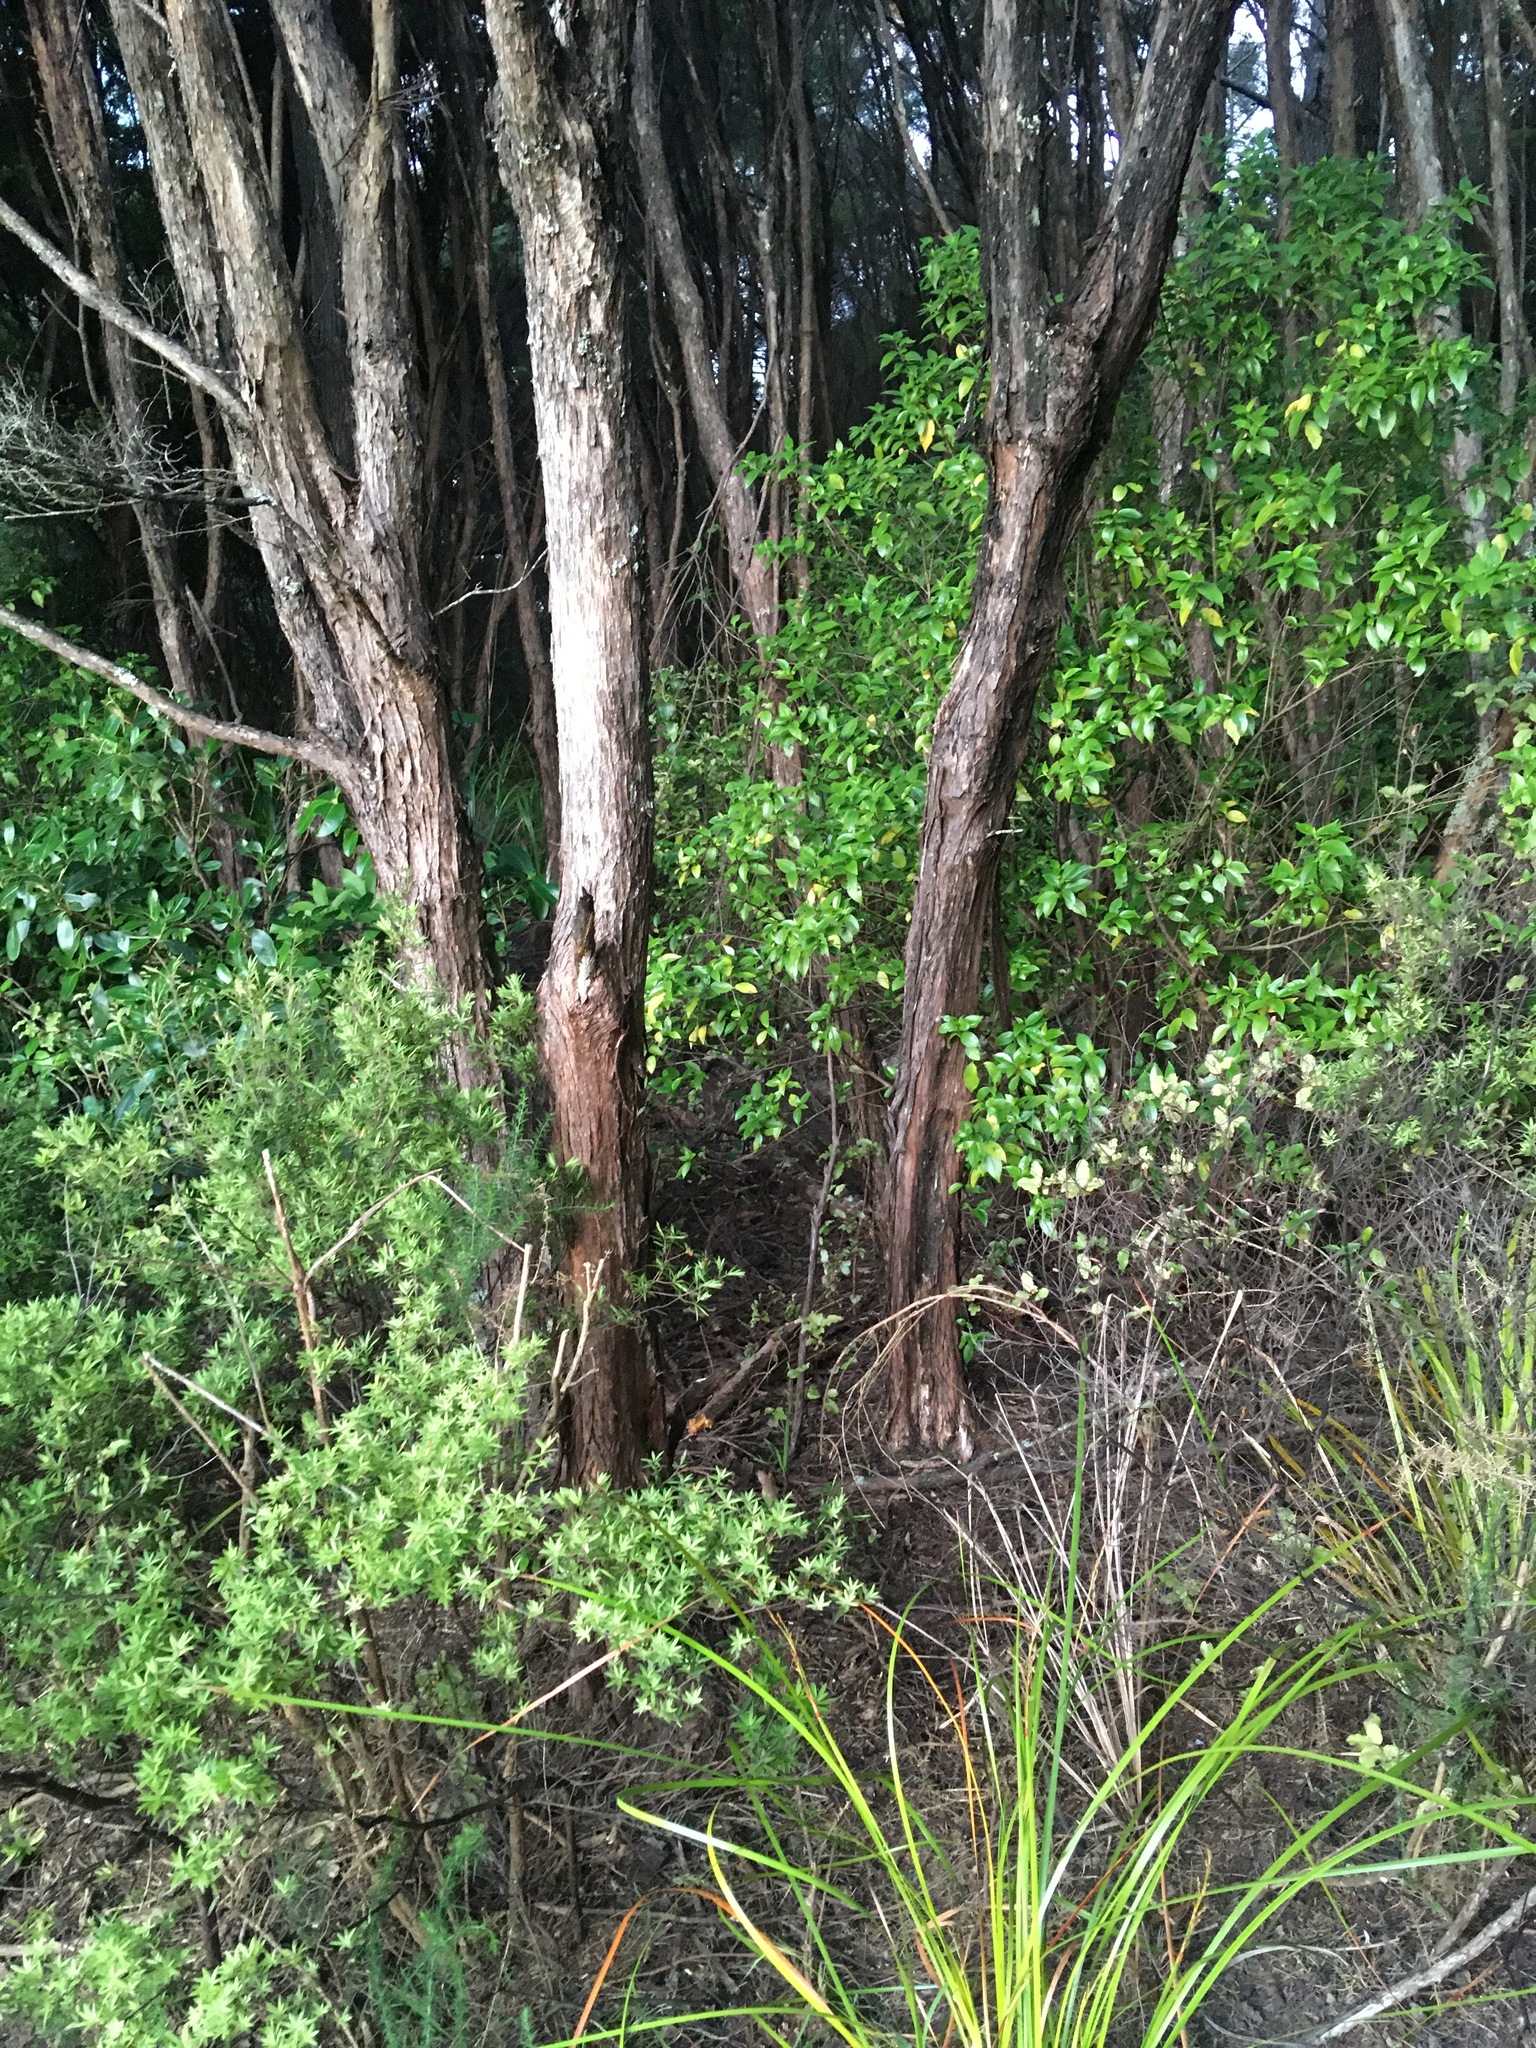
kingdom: Plantae
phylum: Tracheophyta
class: Magnoliopsida
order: Gentianales
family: Loganiaceae
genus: Geniostoma
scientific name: Geniostoma ligustrifolium
